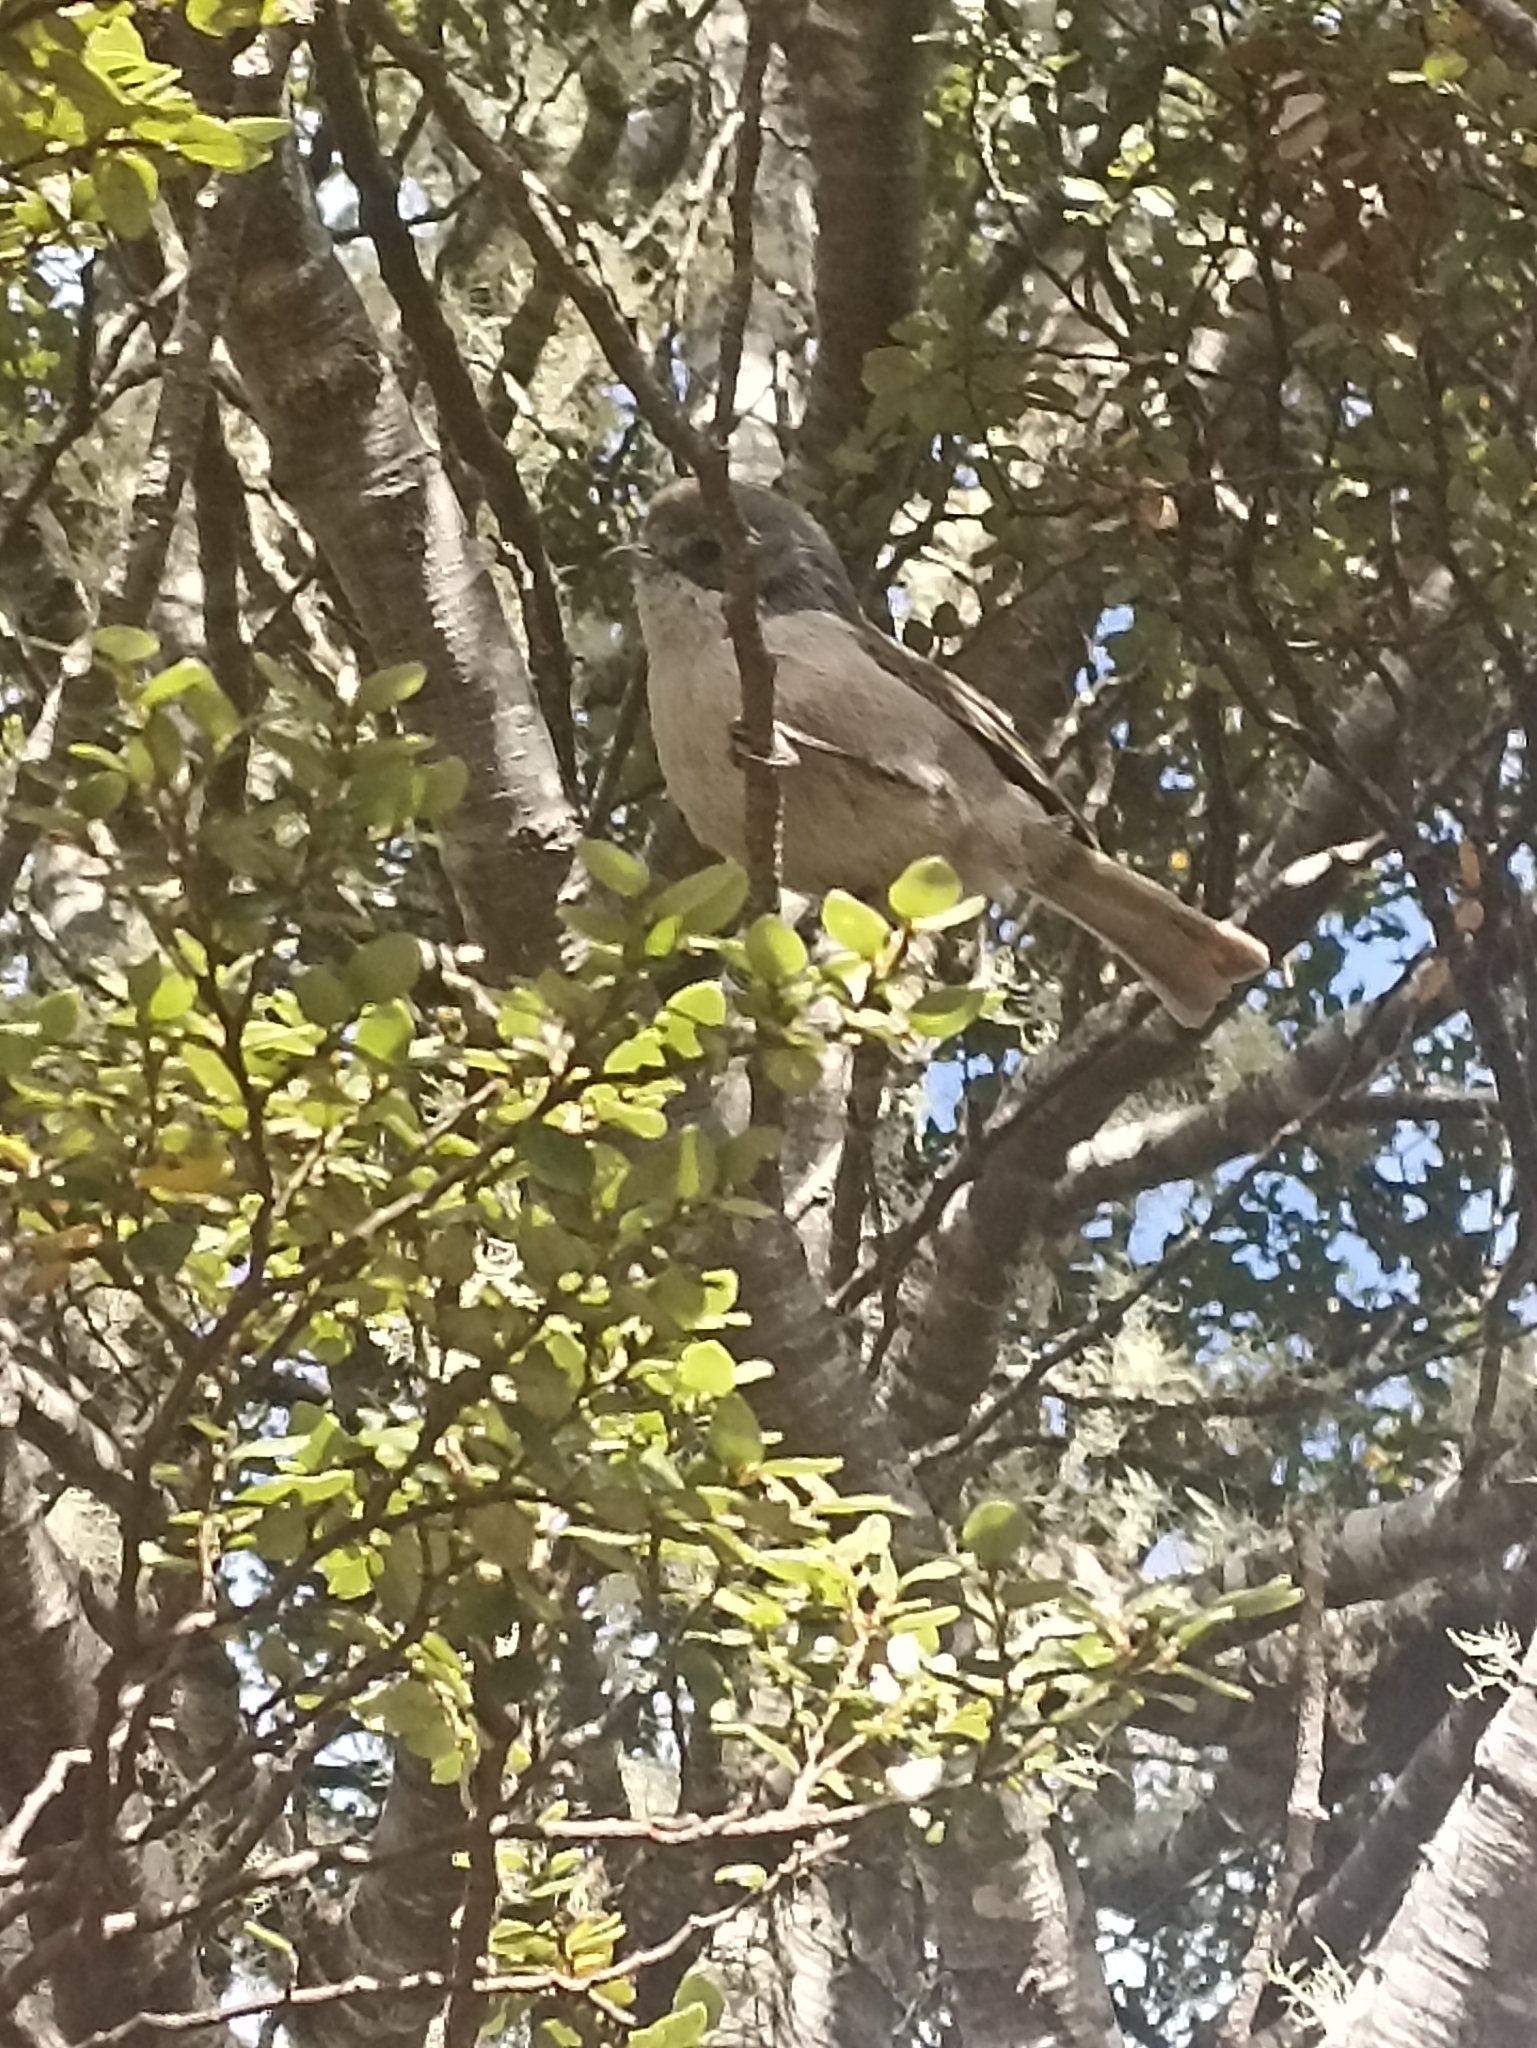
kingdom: Animalia
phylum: Chordata
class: Aves
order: Passeriformes
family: Acanthizidae
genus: Finschia
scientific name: Finschia novaeseelandiae
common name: Pipipi
